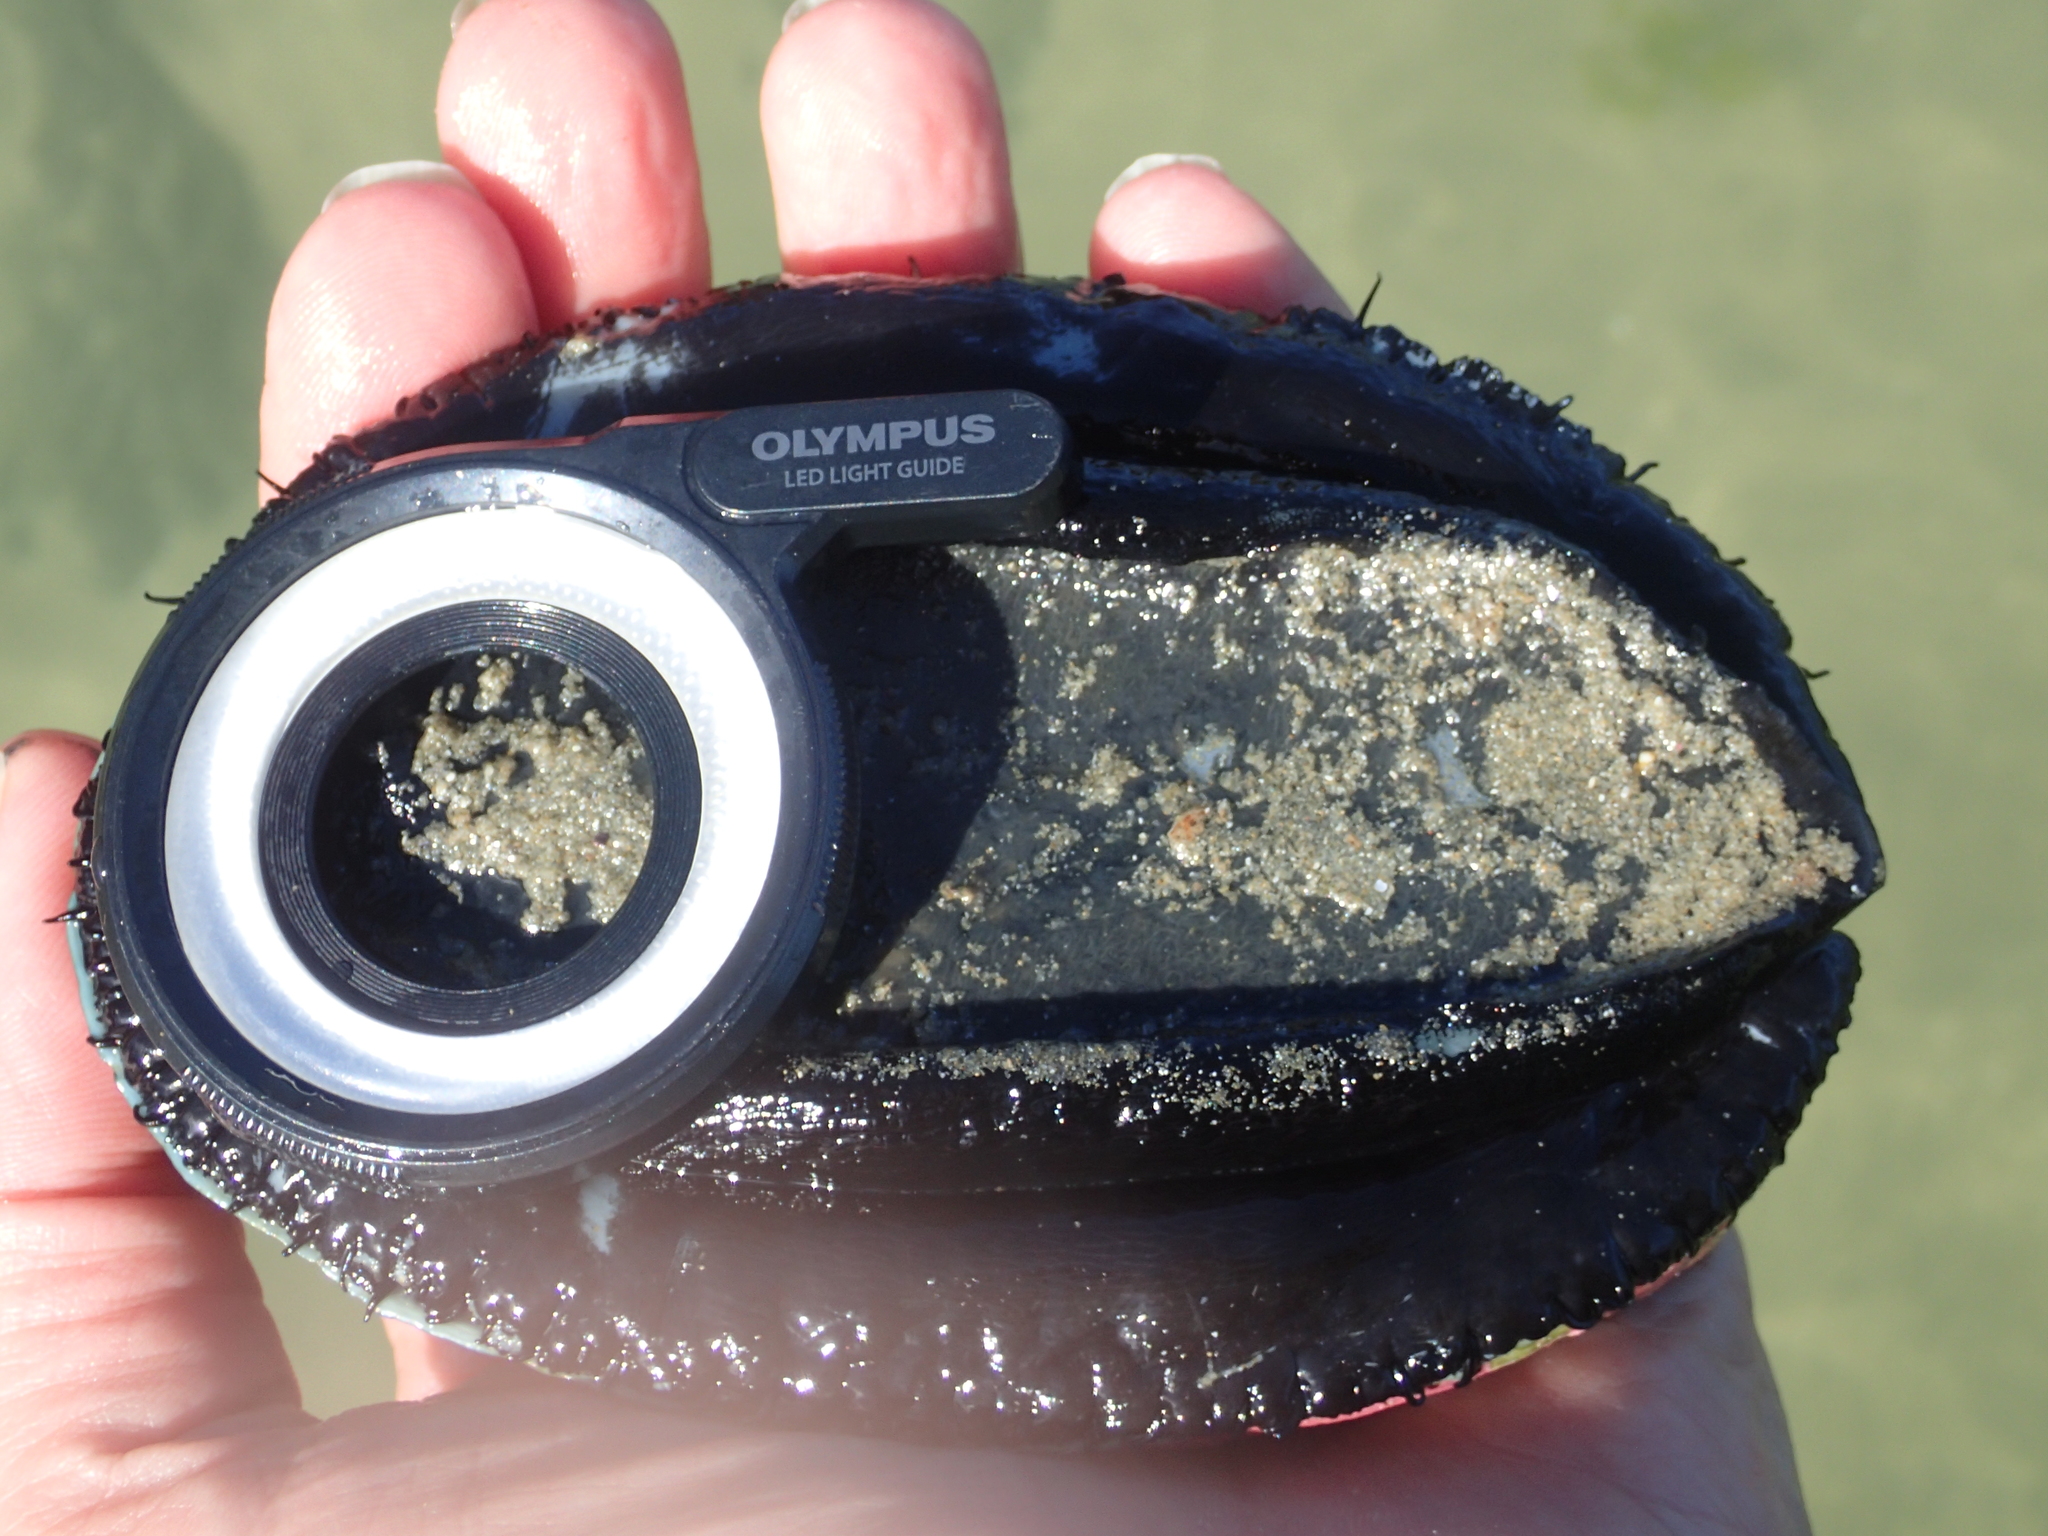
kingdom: Animalia
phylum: Mollusca
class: Gastropoda
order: Lepetellida
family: Haliotidae
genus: Haliotis
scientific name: Haliotis iris
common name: Abalone
